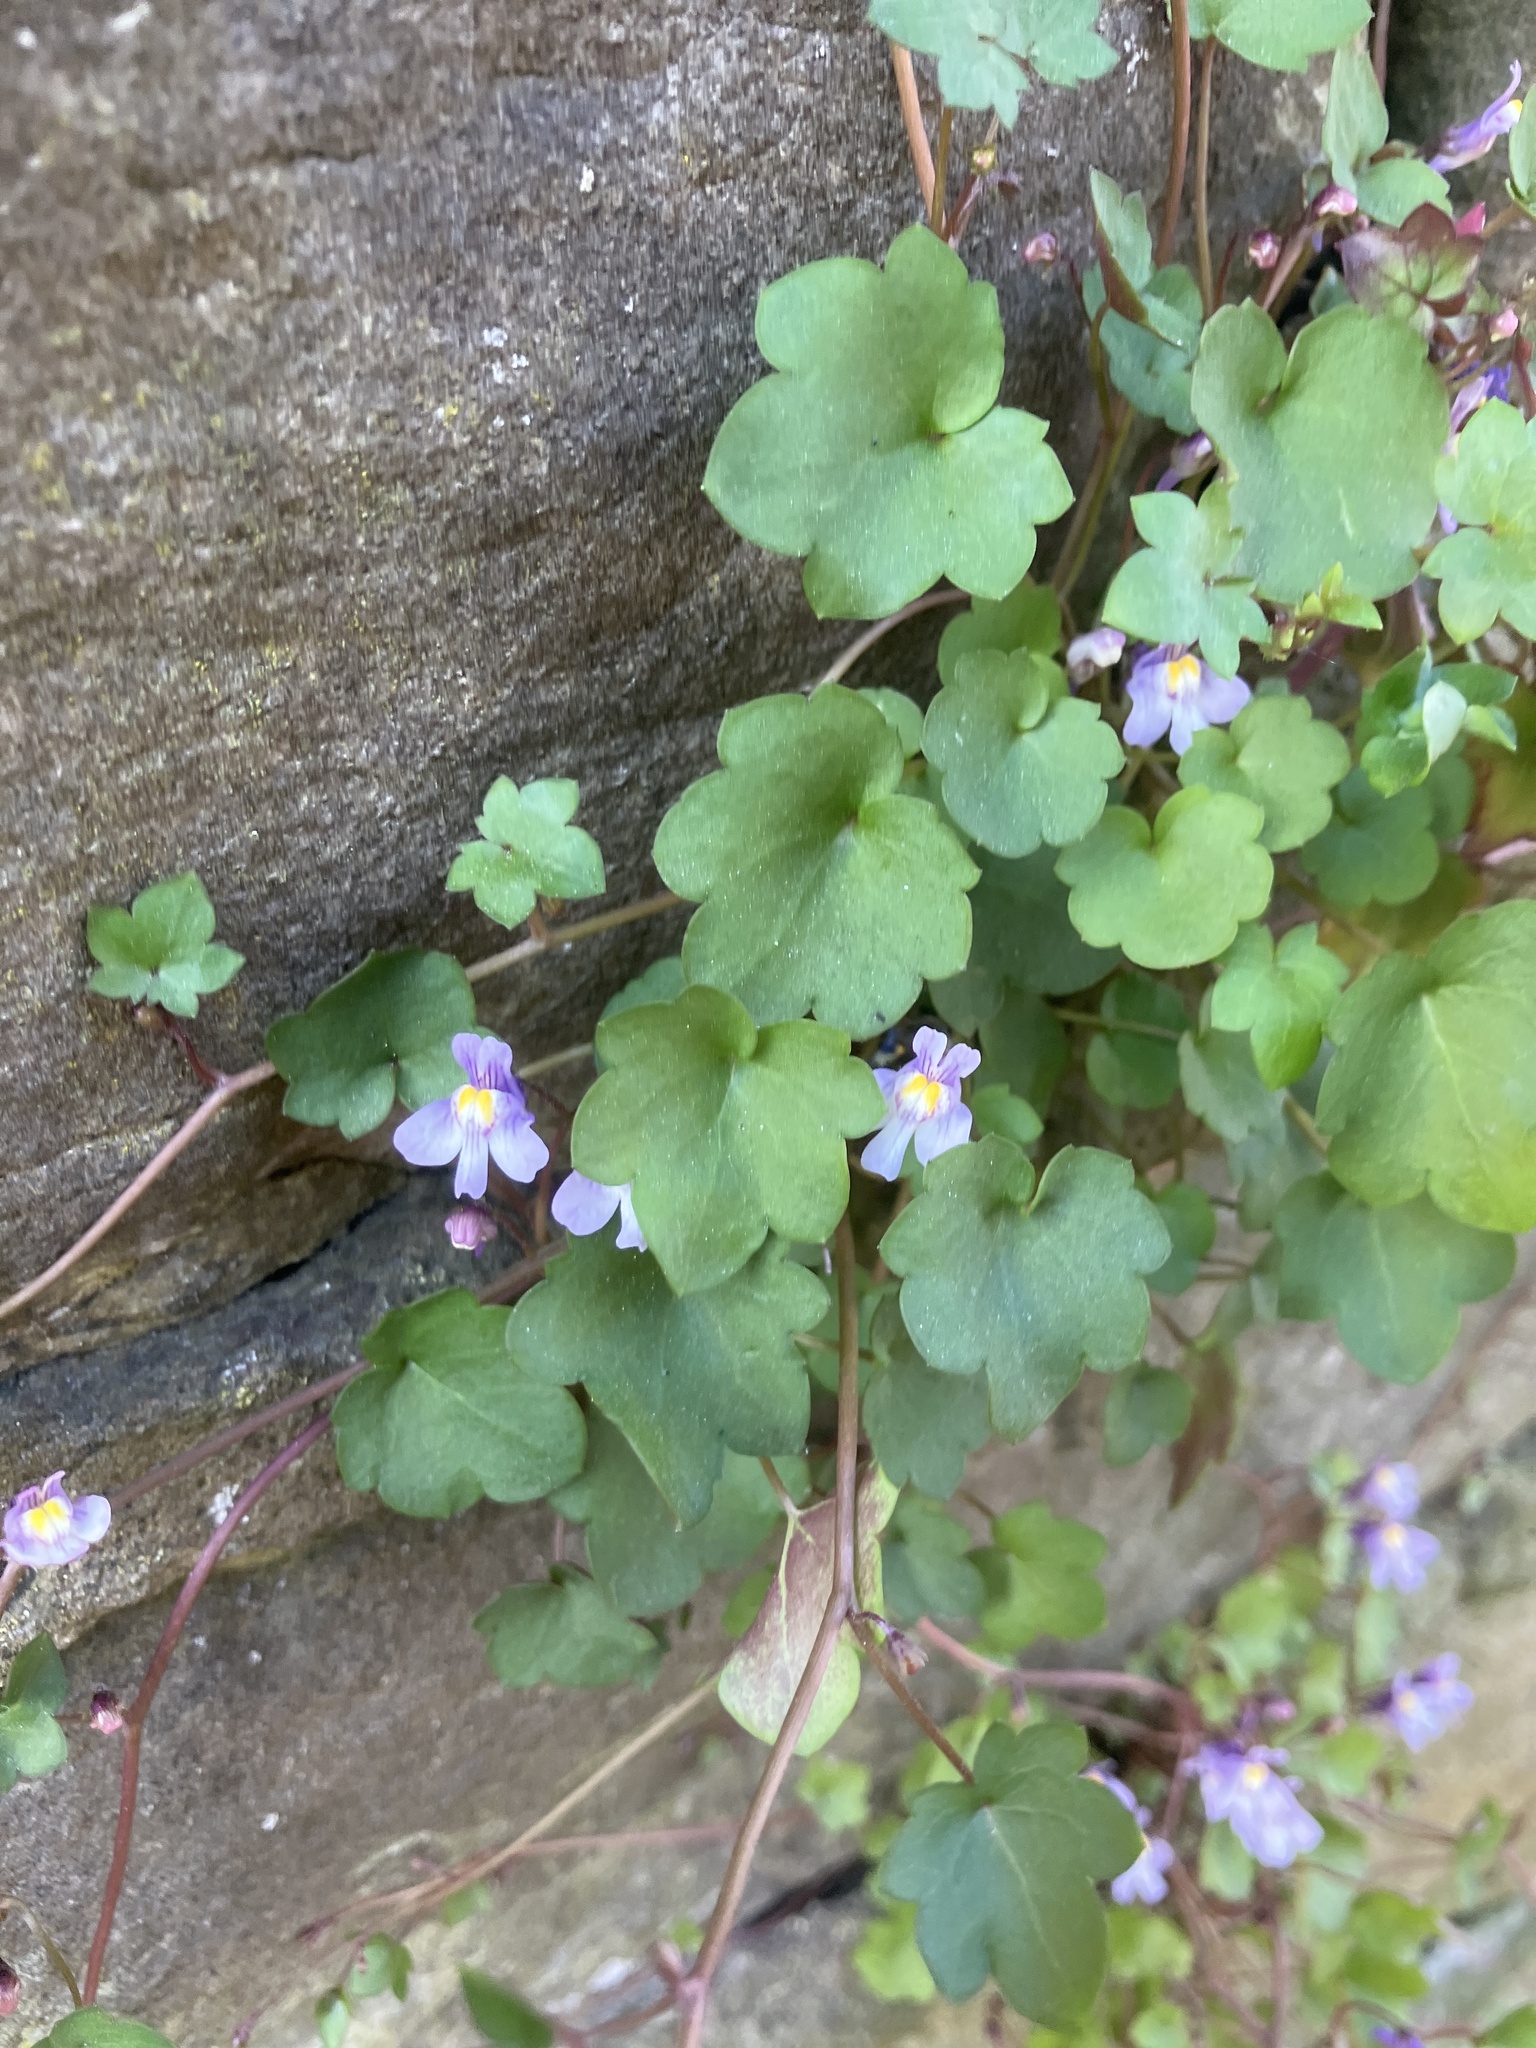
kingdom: Plantae
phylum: Tracheophyta
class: Magnoliopsida
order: Lamiales
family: Plantaginaceae
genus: Cymbalaria
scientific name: Cymbalaria muralis
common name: Ivy-leaved toadflax
